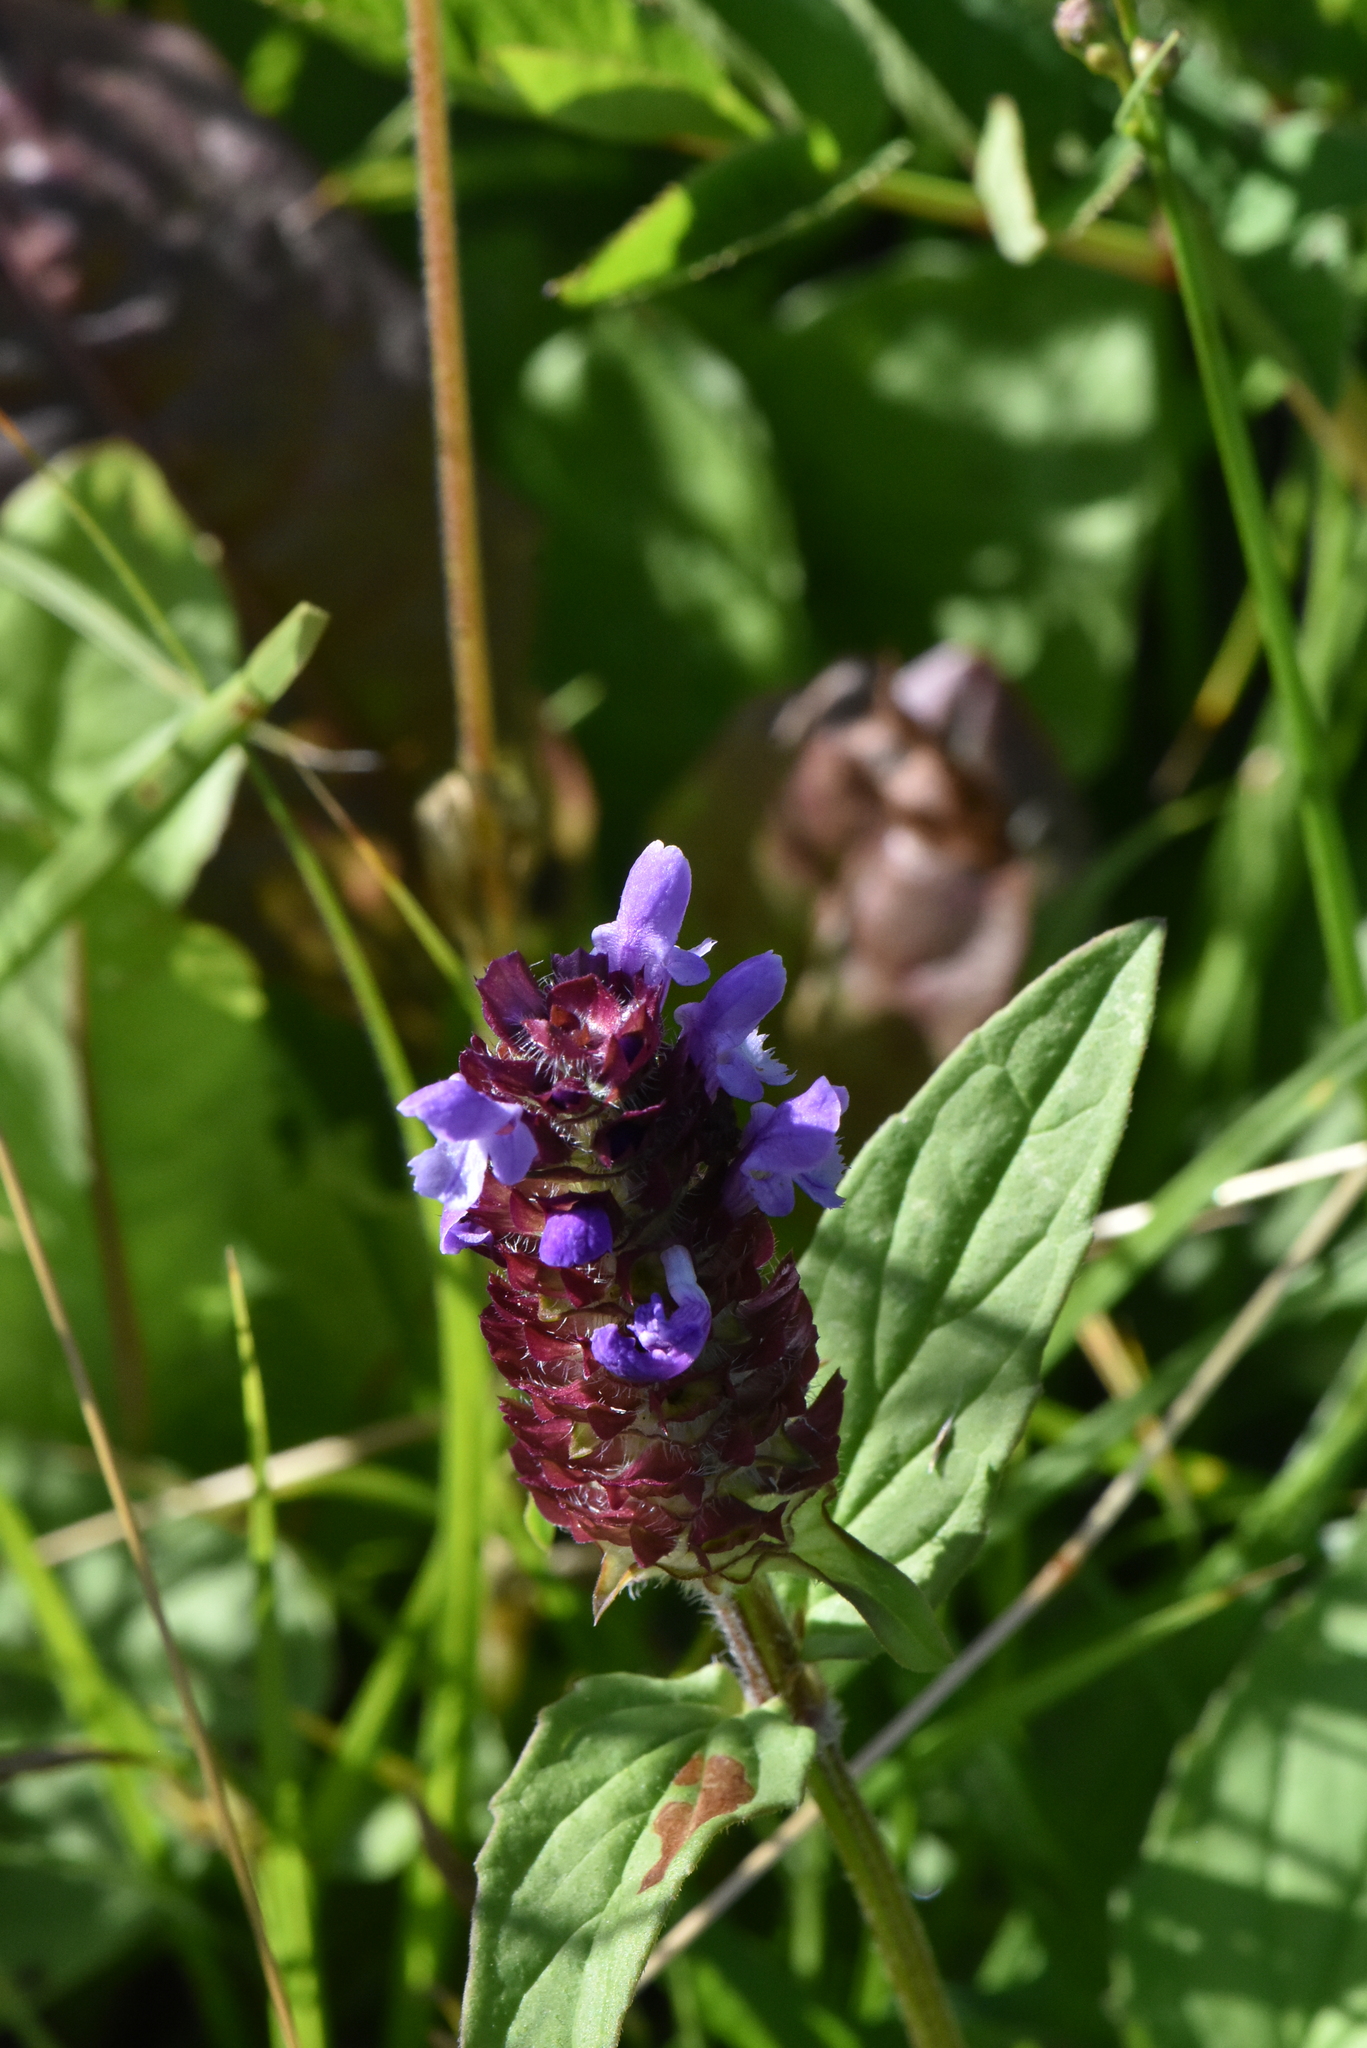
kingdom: Plantae
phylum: Tracheophyta
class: Magnoliopsida
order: Lamiales
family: Lamiaceae
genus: Prunella
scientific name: Prunella vulgaris
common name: Heal-all
